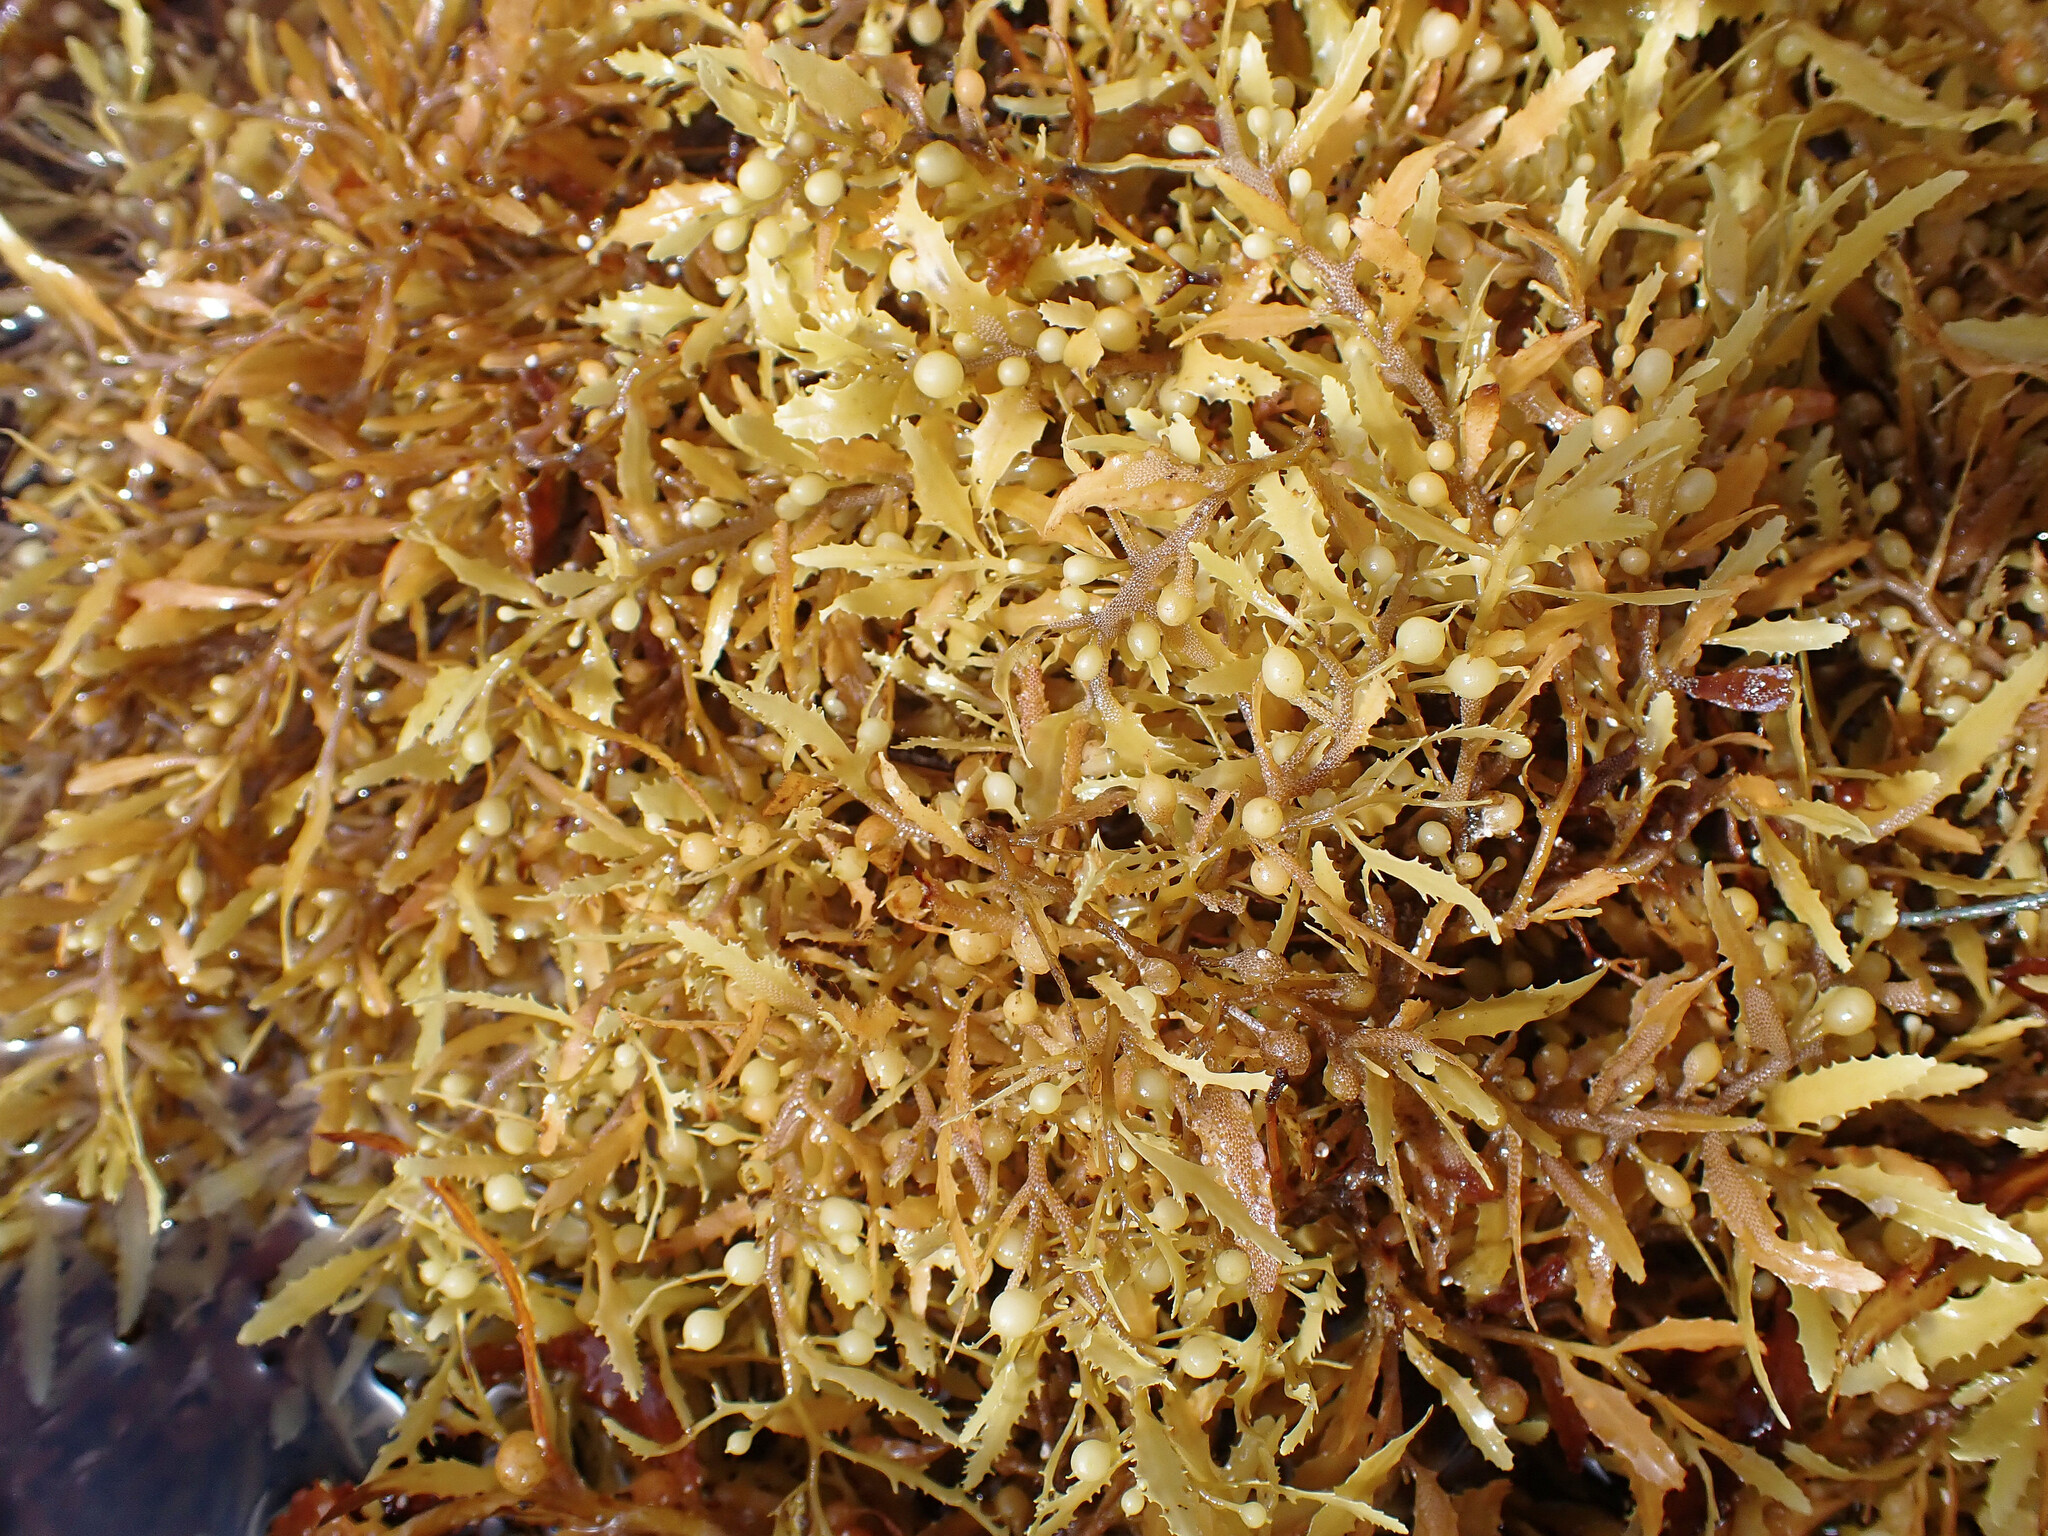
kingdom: Chromista
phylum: Ochrophyta
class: Phaeophyceae
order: Fucales
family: Sargassaceae
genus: Sargassum
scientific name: Sargassum fluitans
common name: Sargassum seaweed
